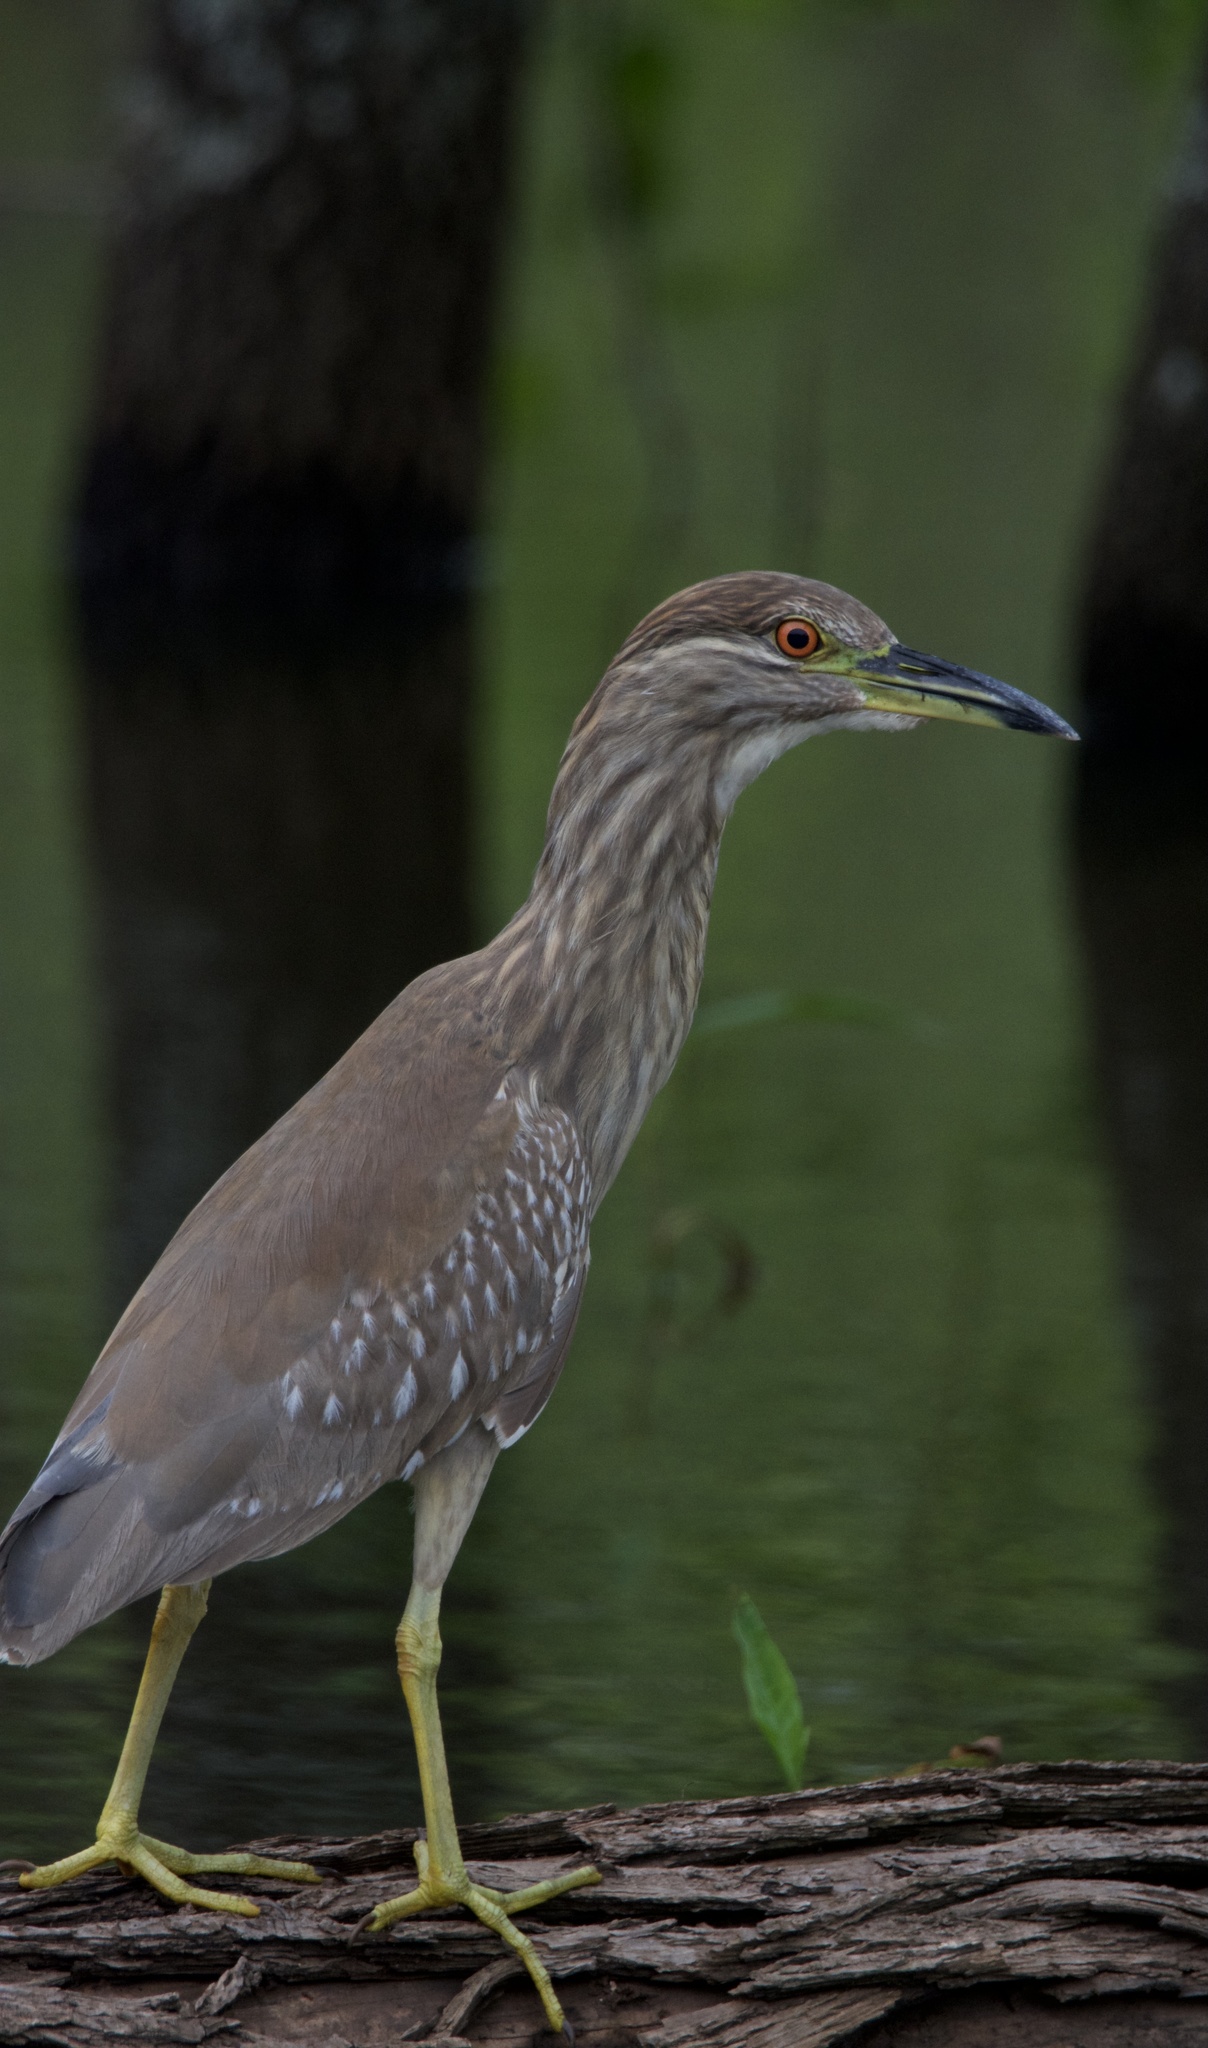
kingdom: Animalia
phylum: Chordata
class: Aves
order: Pelecaniformes
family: Ardeidae
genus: Nycticorax
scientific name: Nycticorax nycticorax
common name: Black-crowned night heron
